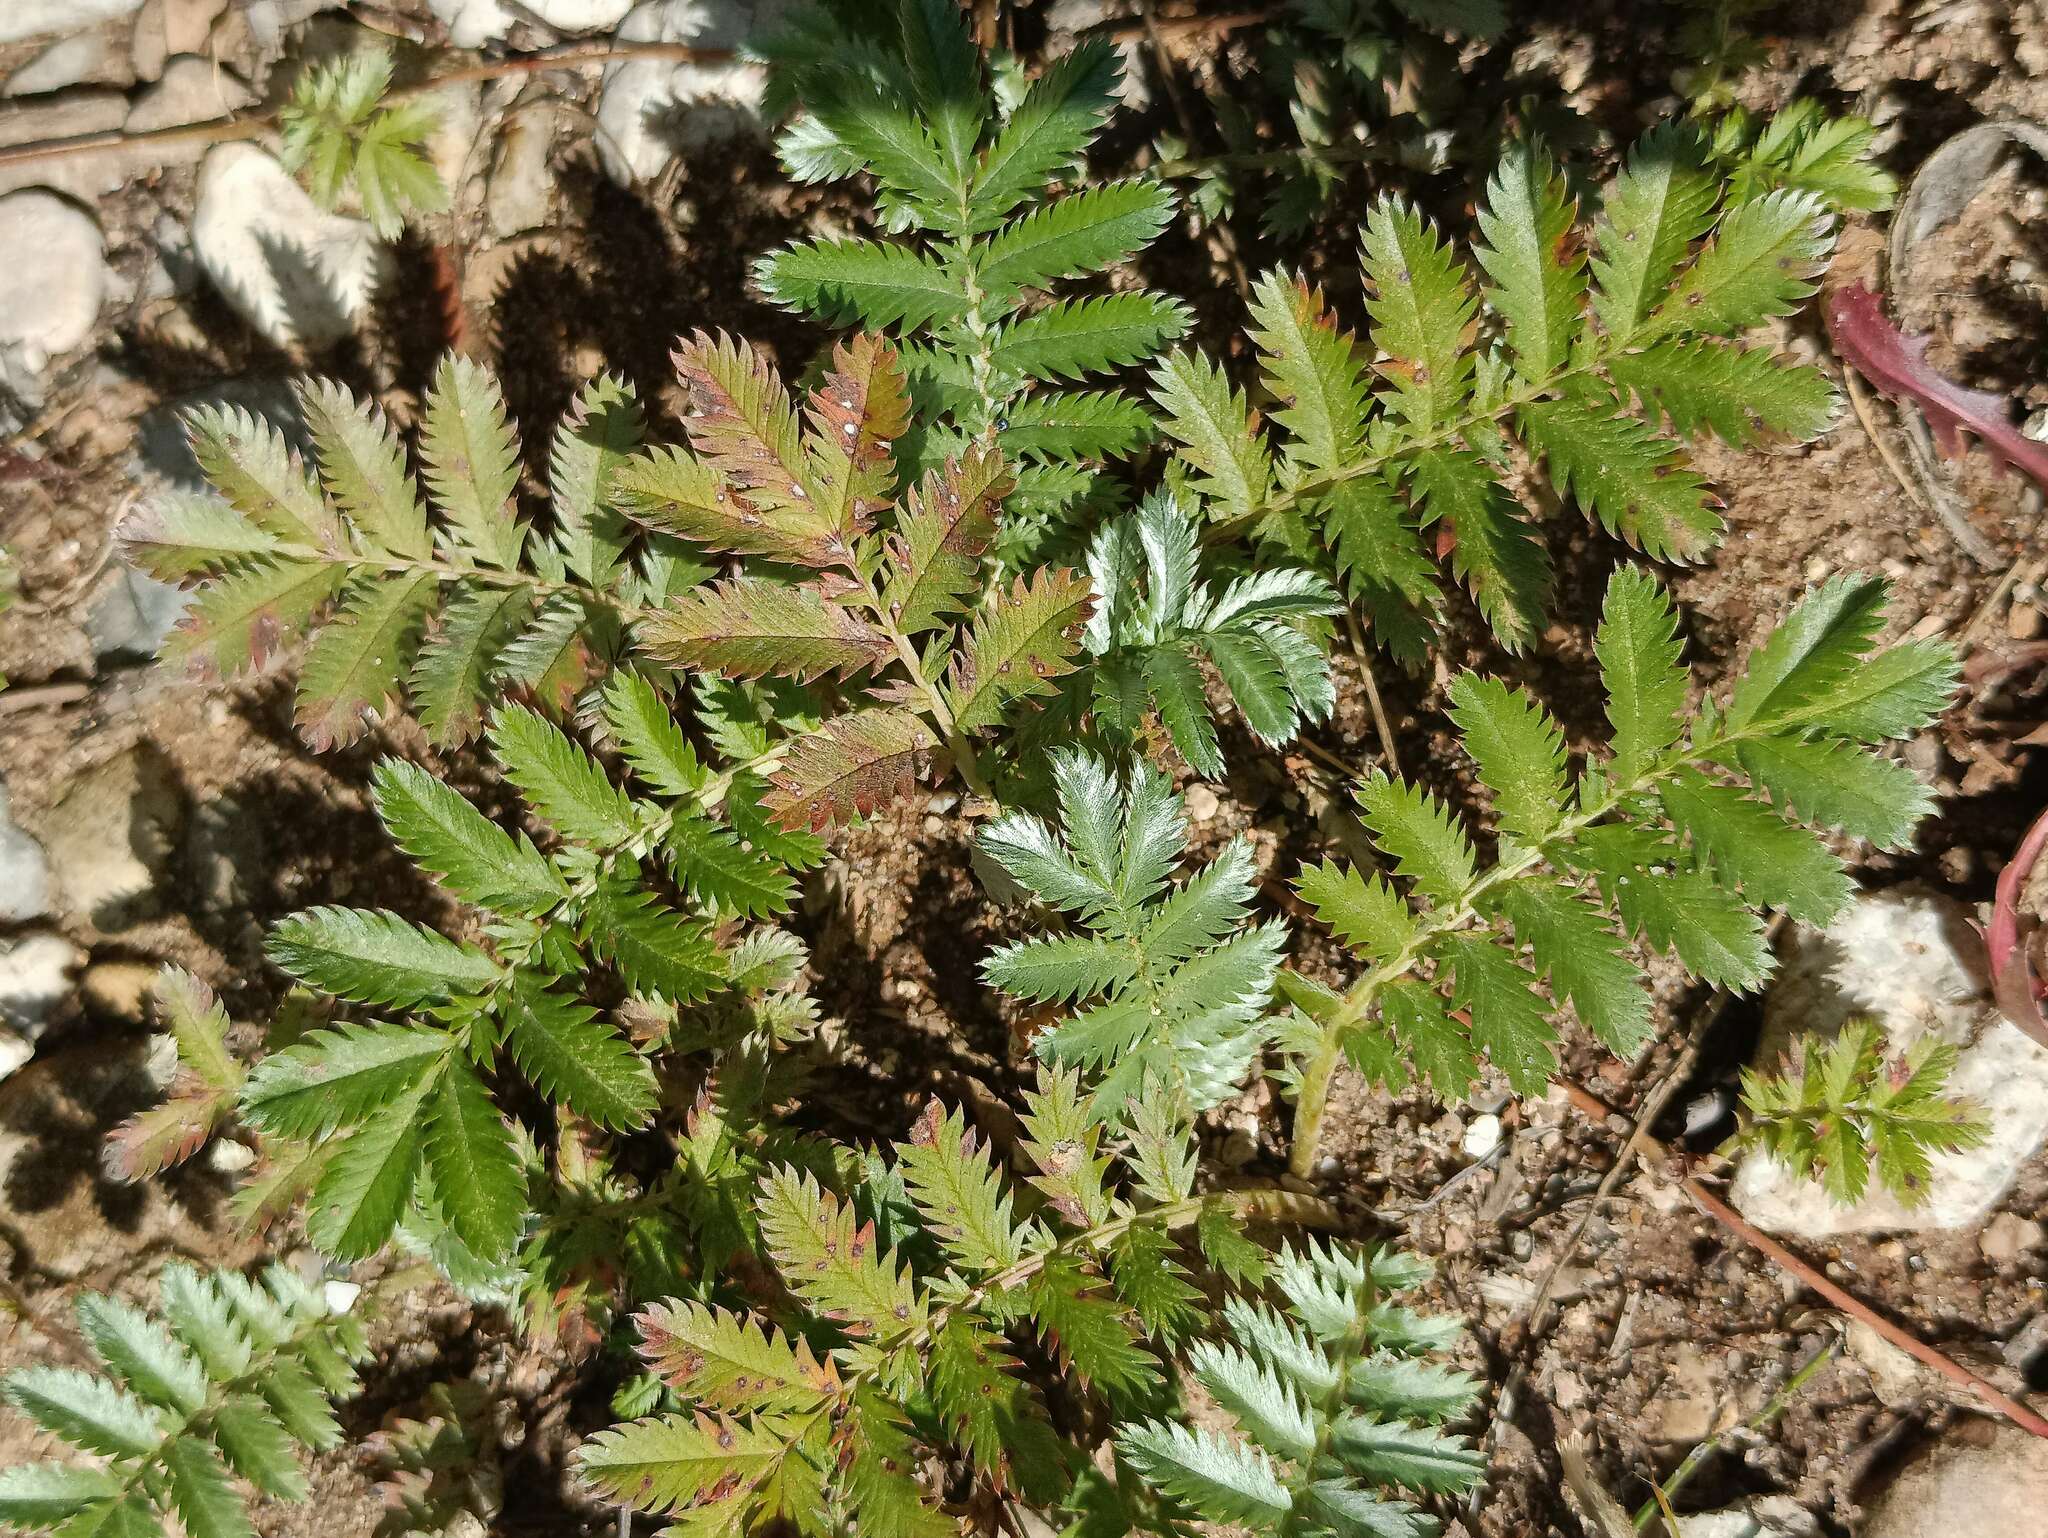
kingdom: Plantae
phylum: Tracheophyta
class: Magnoliopsida
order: Rosales
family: Rosaceae
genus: Argentina
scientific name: Argentina anserina
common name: Common silverweed
